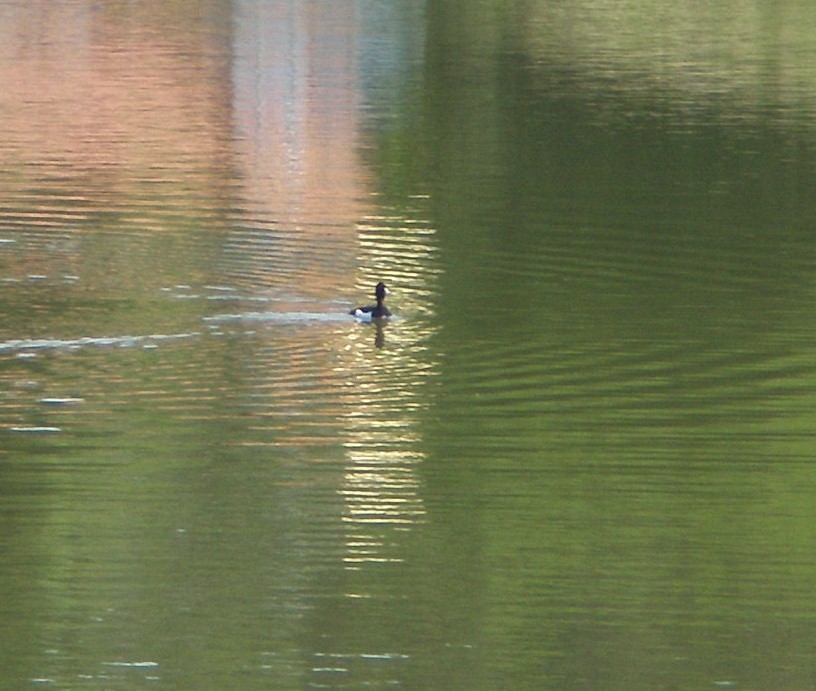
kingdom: Animalia
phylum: Chordata
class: Aves
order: Anseriformes
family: Anatidae
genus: Aythya
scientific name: Aythya fuligula
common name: Tufted duck
